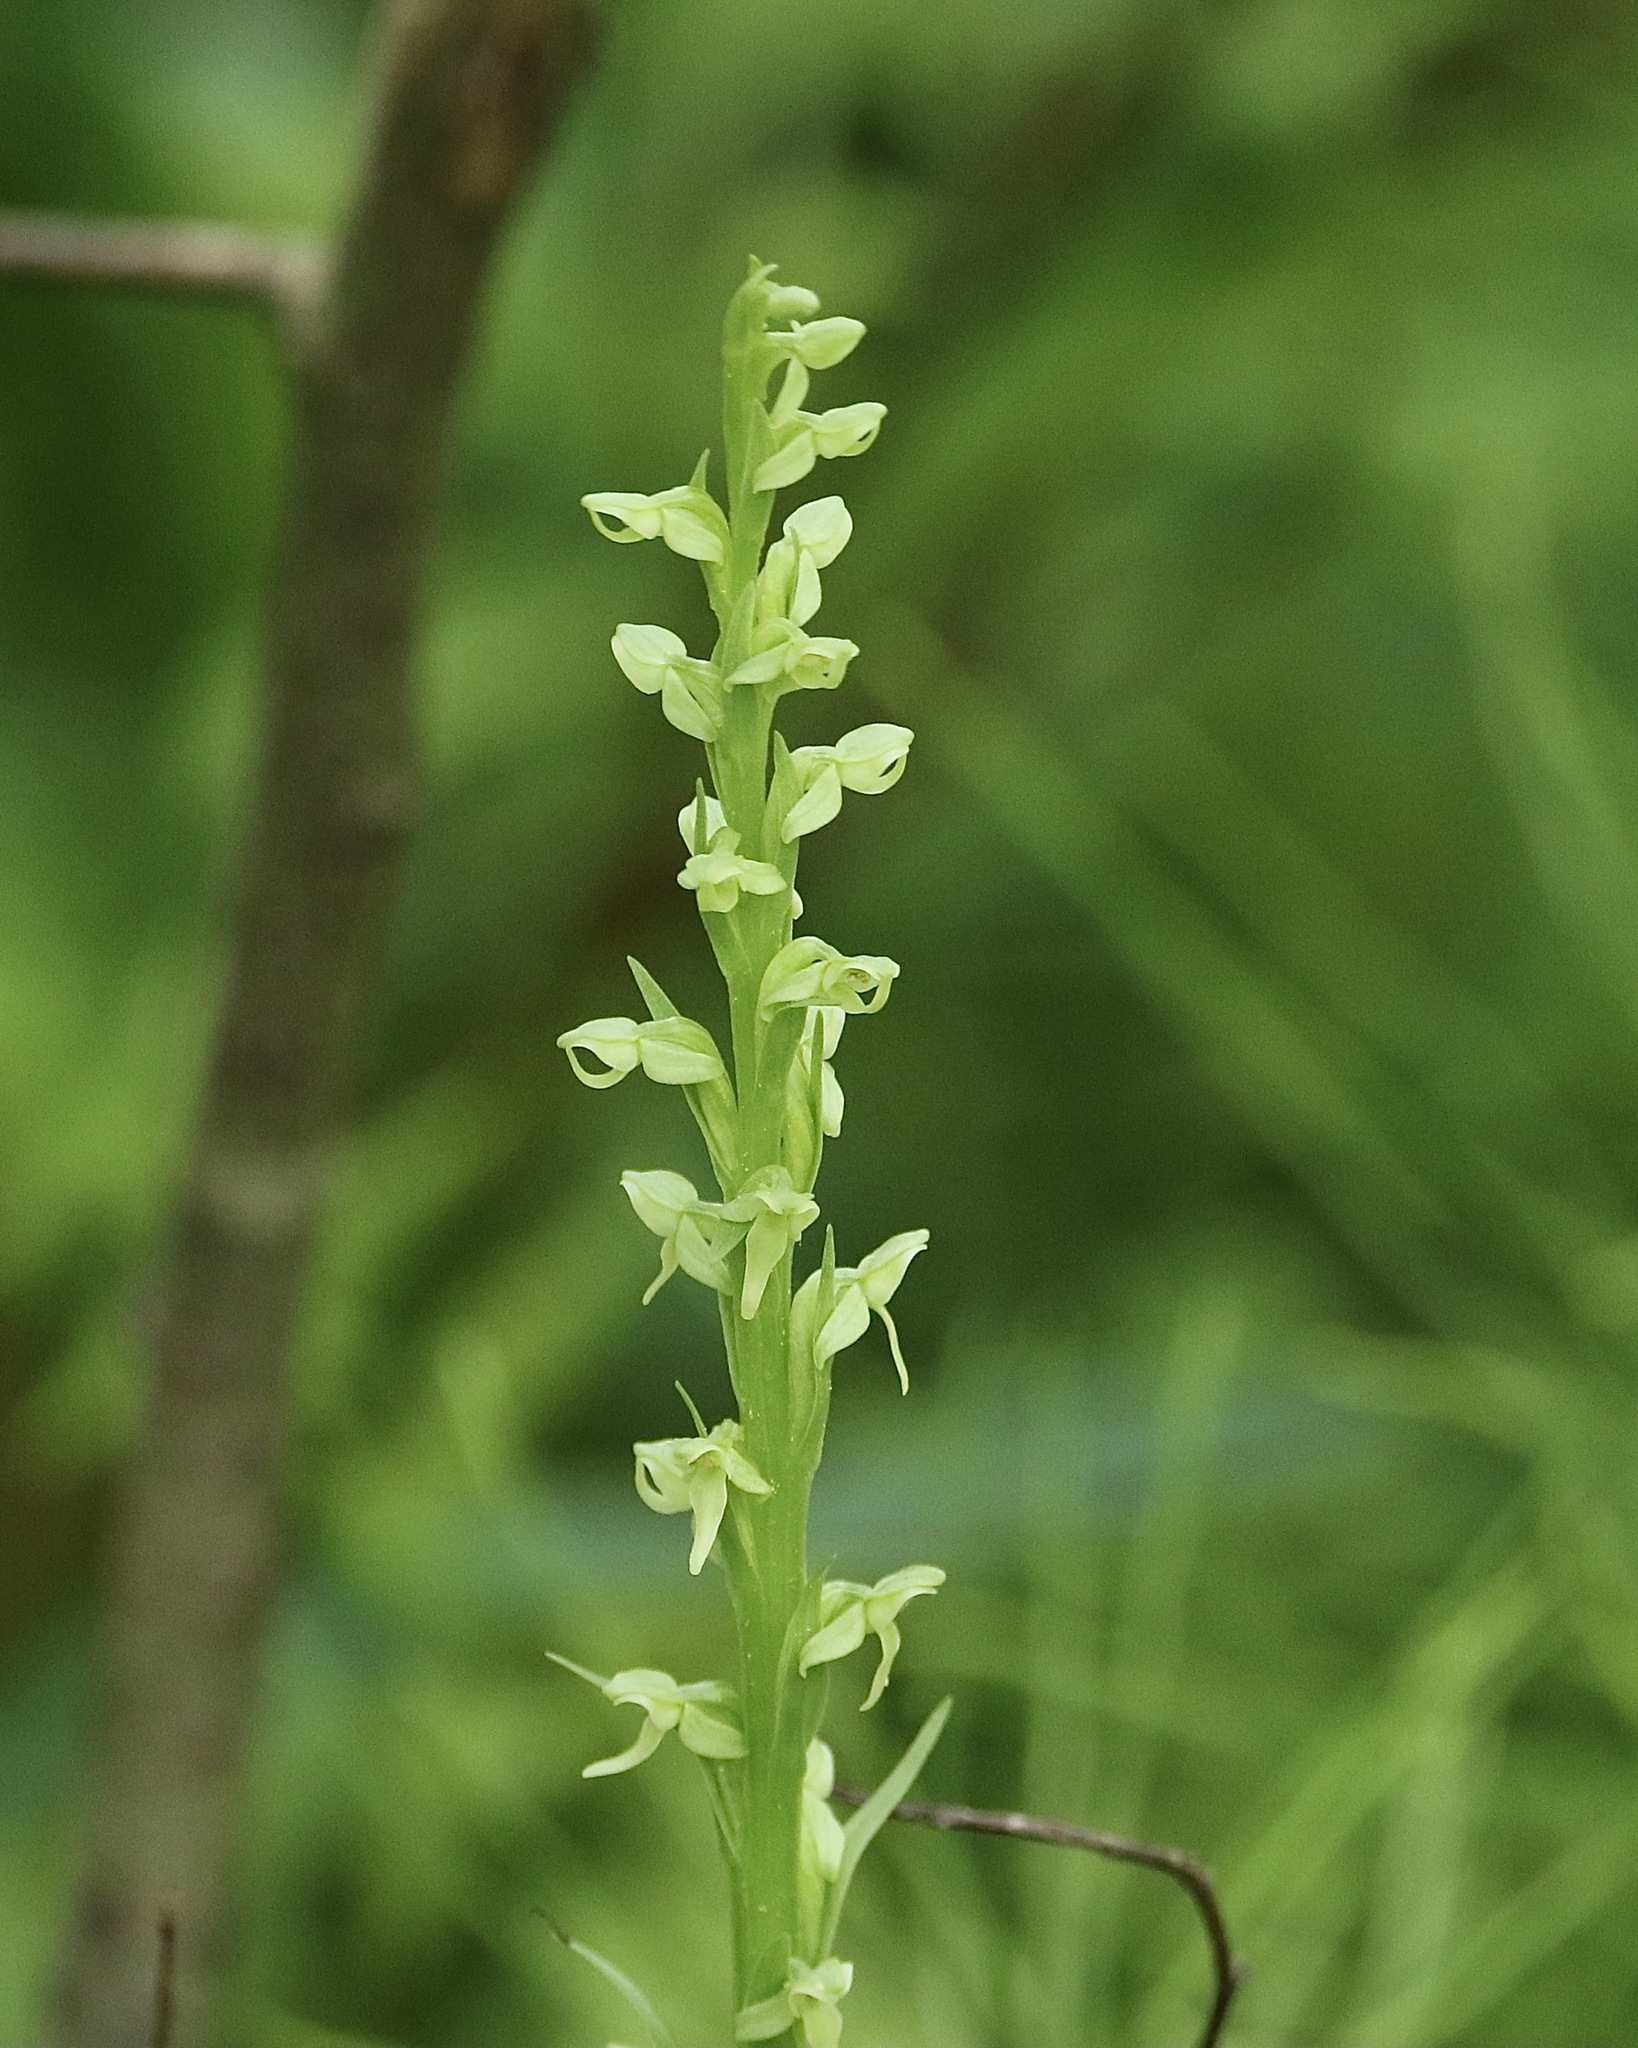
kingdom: Plantae
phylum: Tracheophyta
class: Liliopsida
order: Asparagales
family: Orchidaceae
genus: Platanthera
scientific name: Platanthera huronensis
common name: Fragrant green orchid
